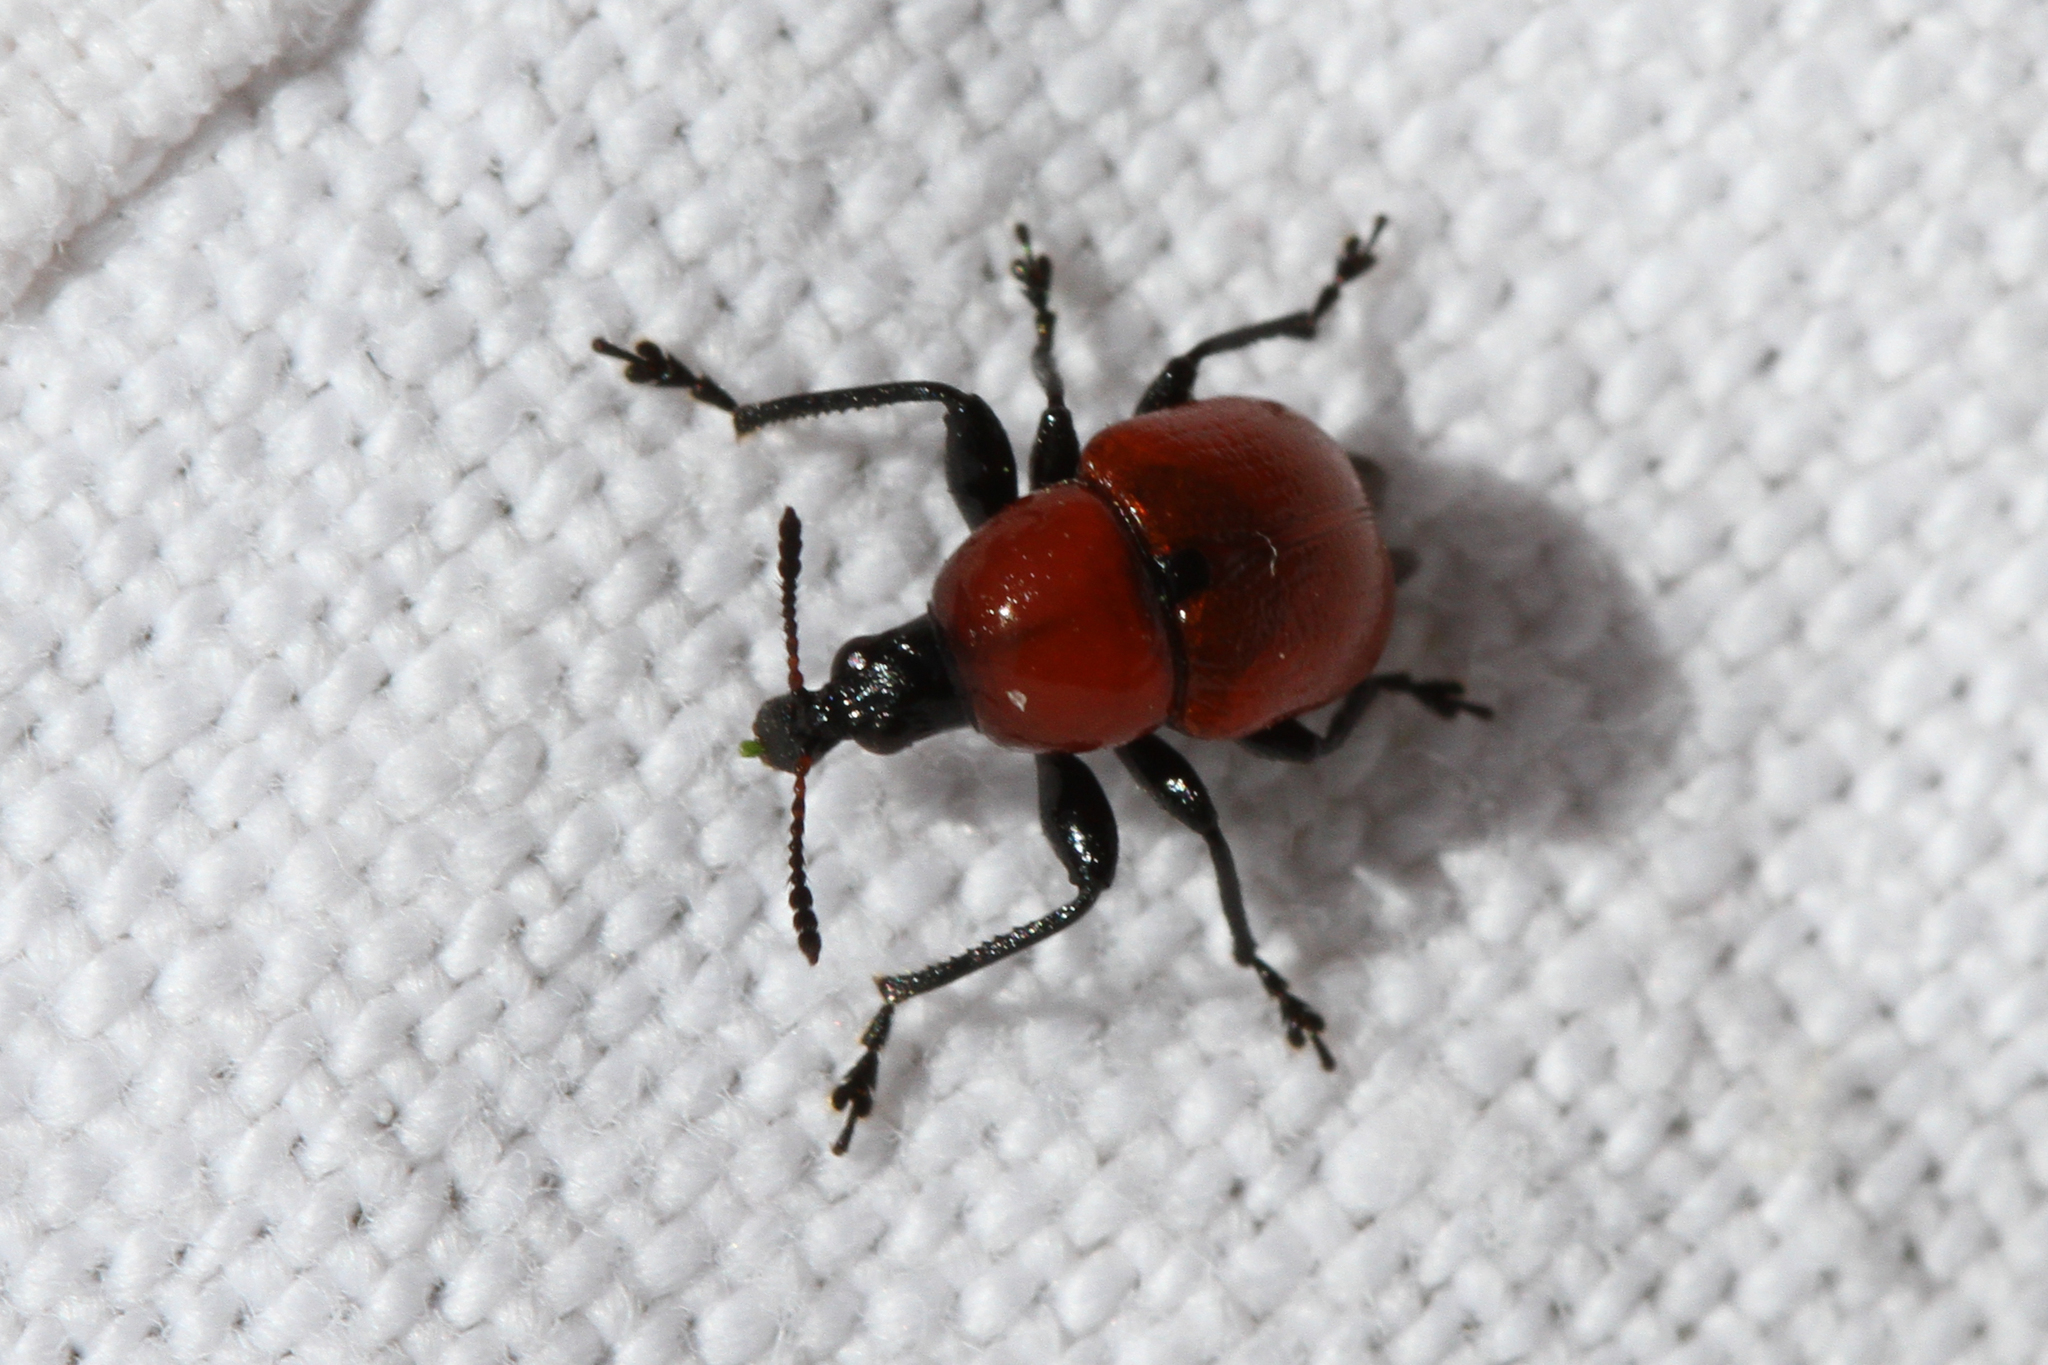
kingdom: Animalia
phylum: Arthropoda
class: Insecta
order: Coleoptera
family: Attelabidae
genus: Attelabus
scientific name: Attelabus nitens
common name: Oak leaf-roller
